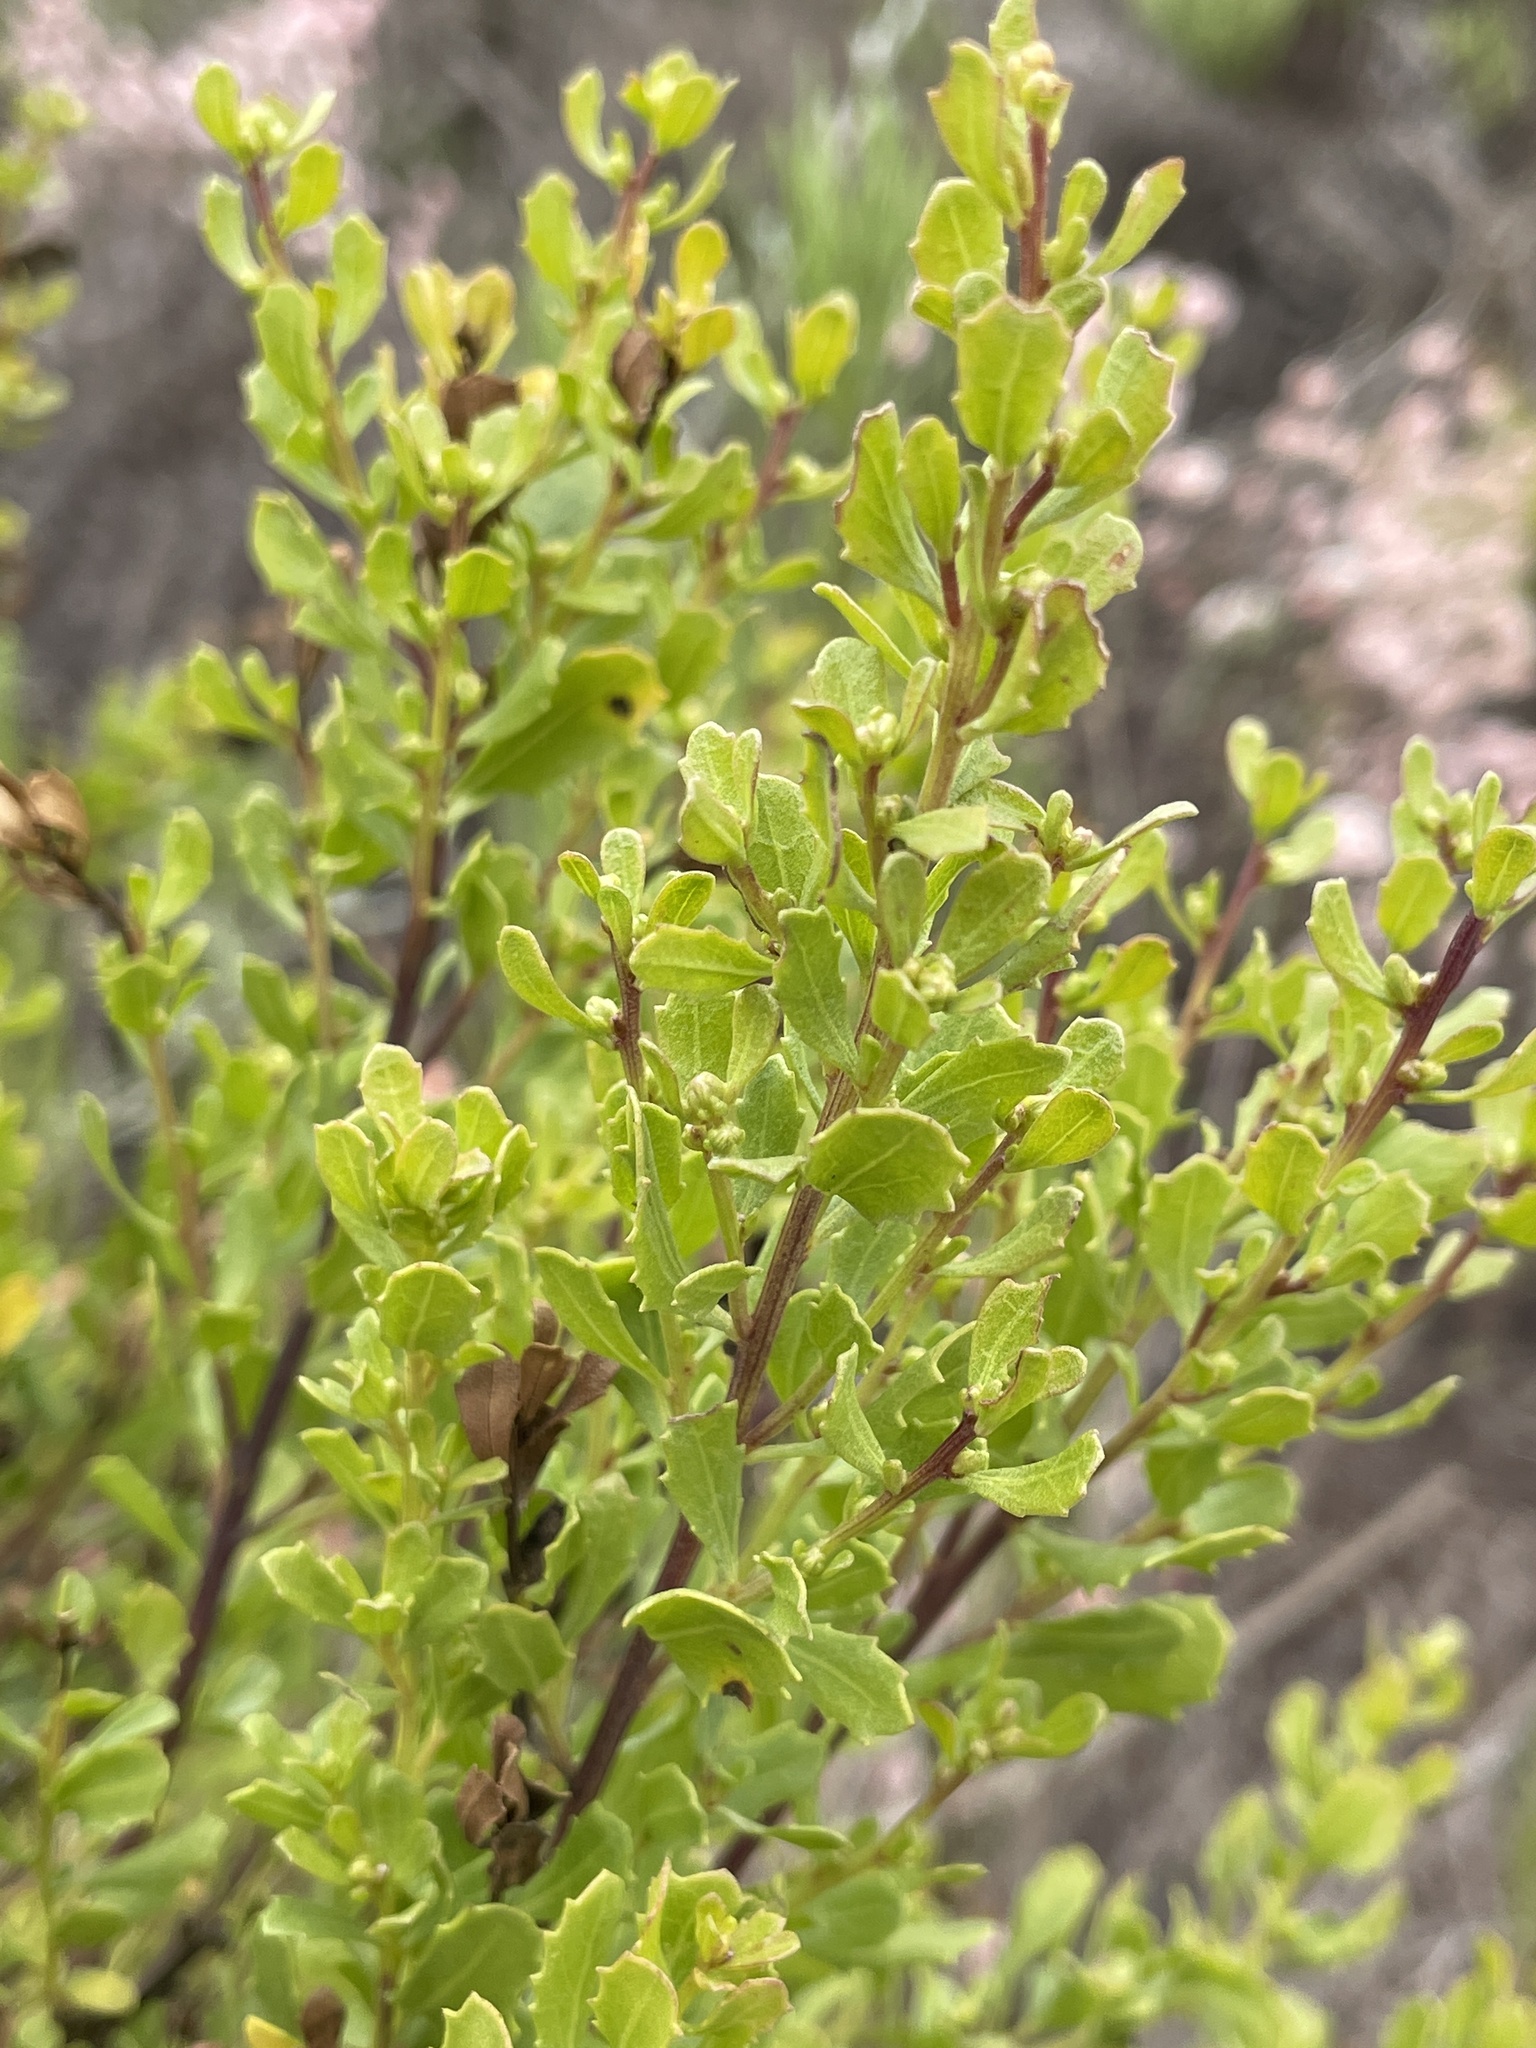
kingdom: Plantae
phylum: Tracheophyta
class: Magnoliopsida
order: Asterales
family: Asteraceae
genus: Baccharis
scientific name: Baccharis pilularis
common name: Coyotebrush
